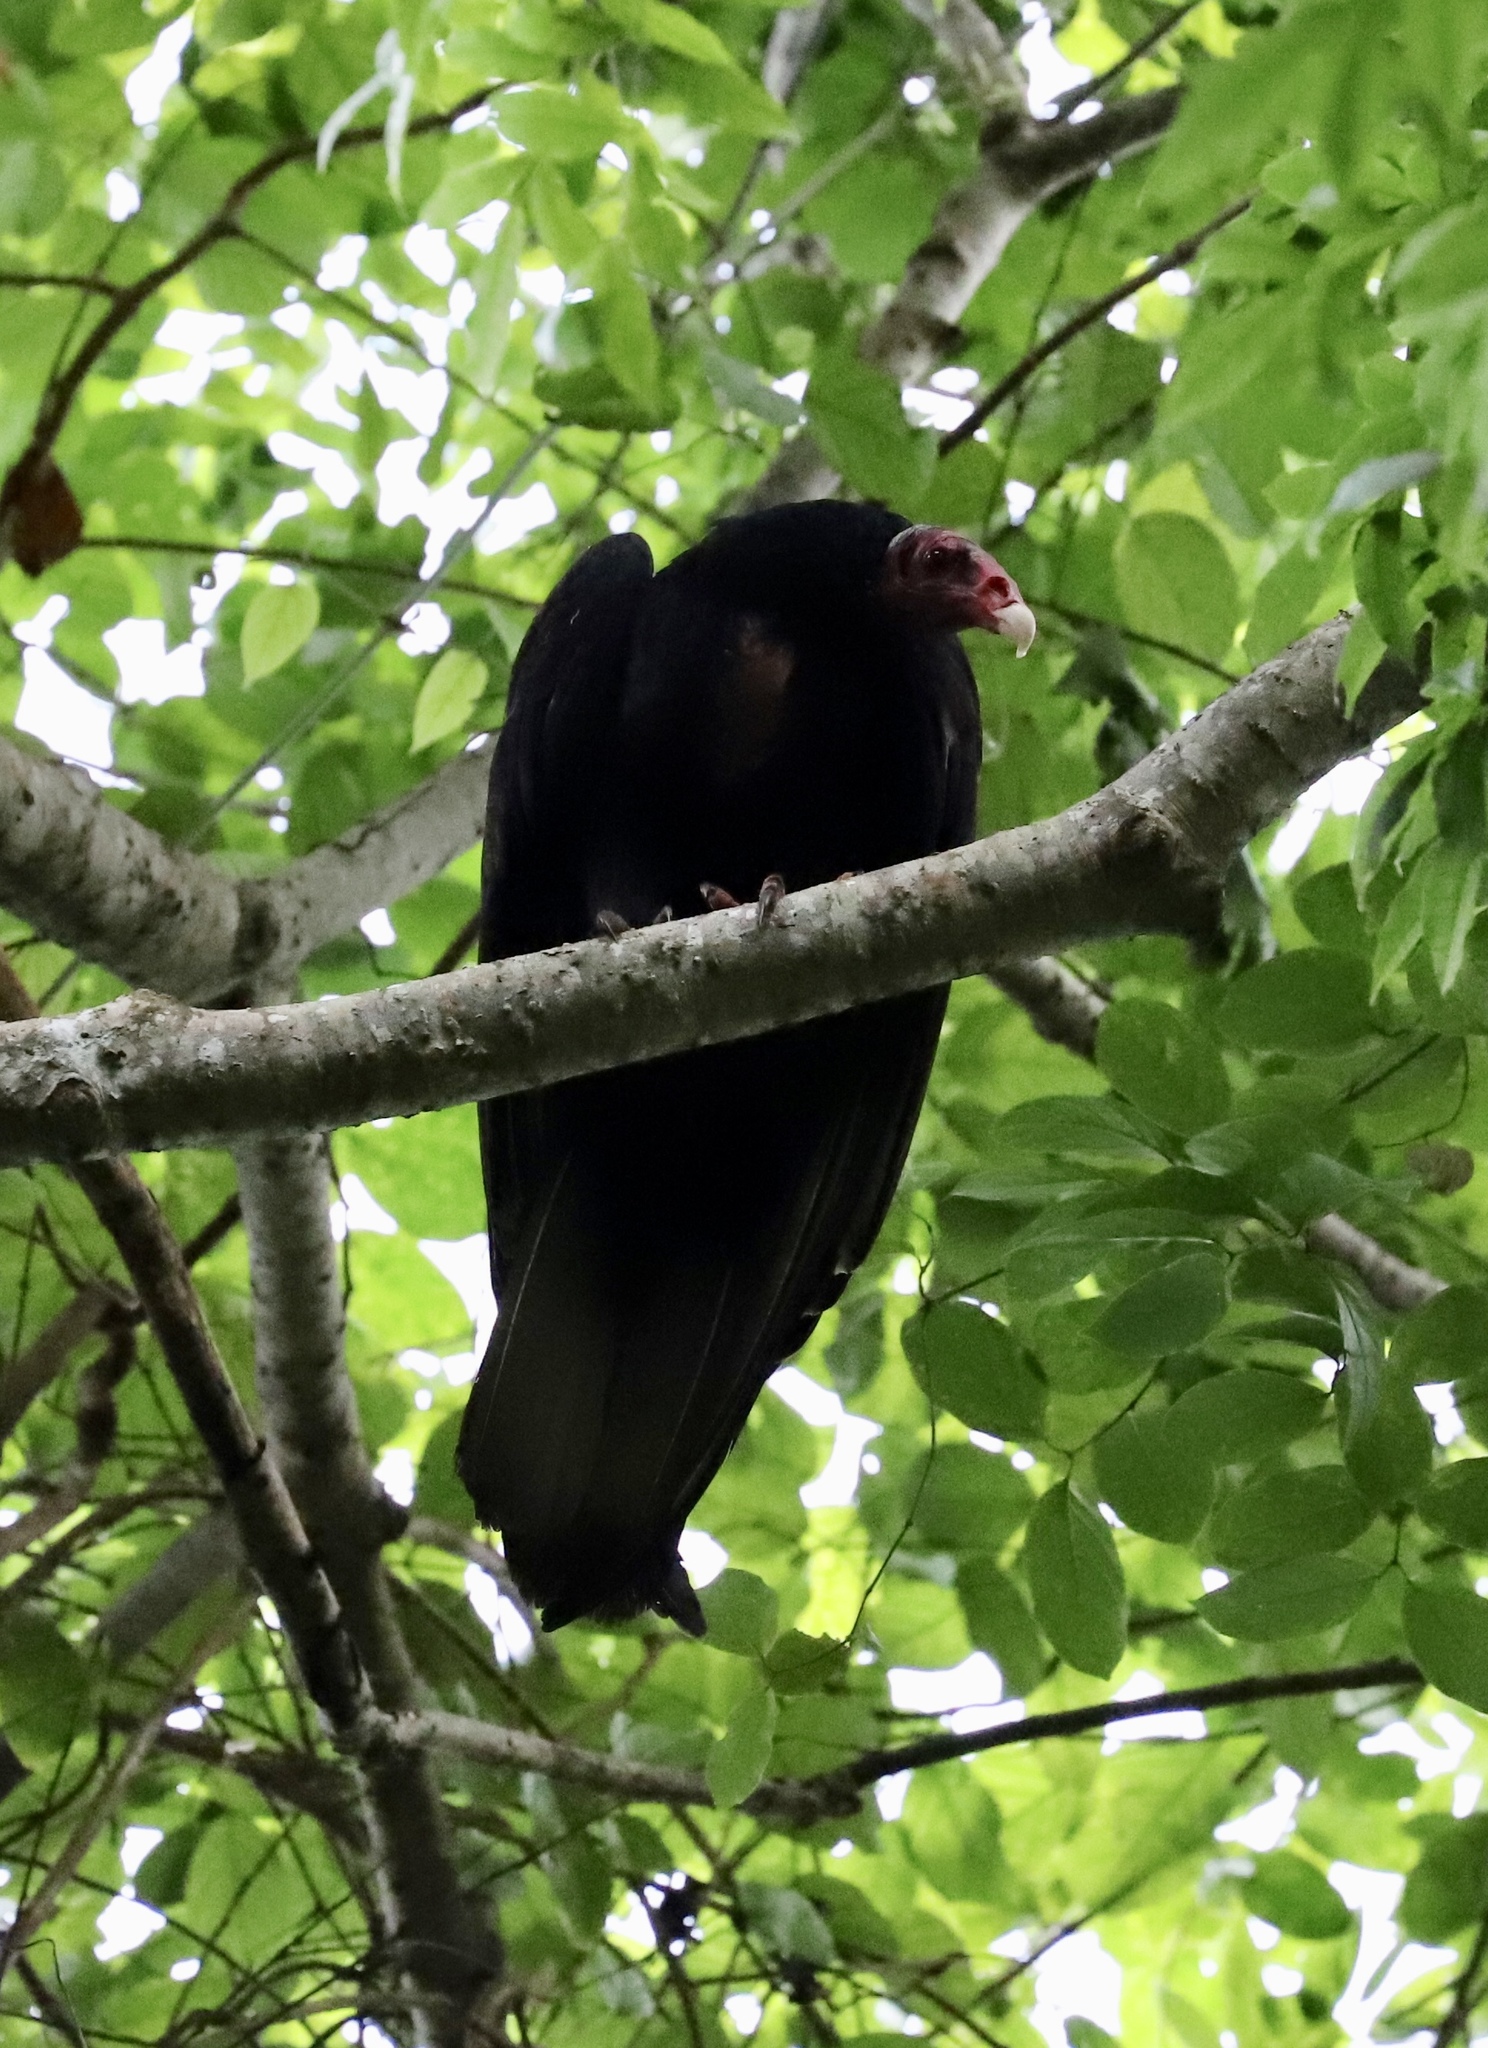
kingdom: Animalia
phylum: Chordata
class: Aves
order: Accipitriformes
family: Cathartidae
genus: Cathartes
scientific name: Cathartes aura
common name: Turkey vulture
